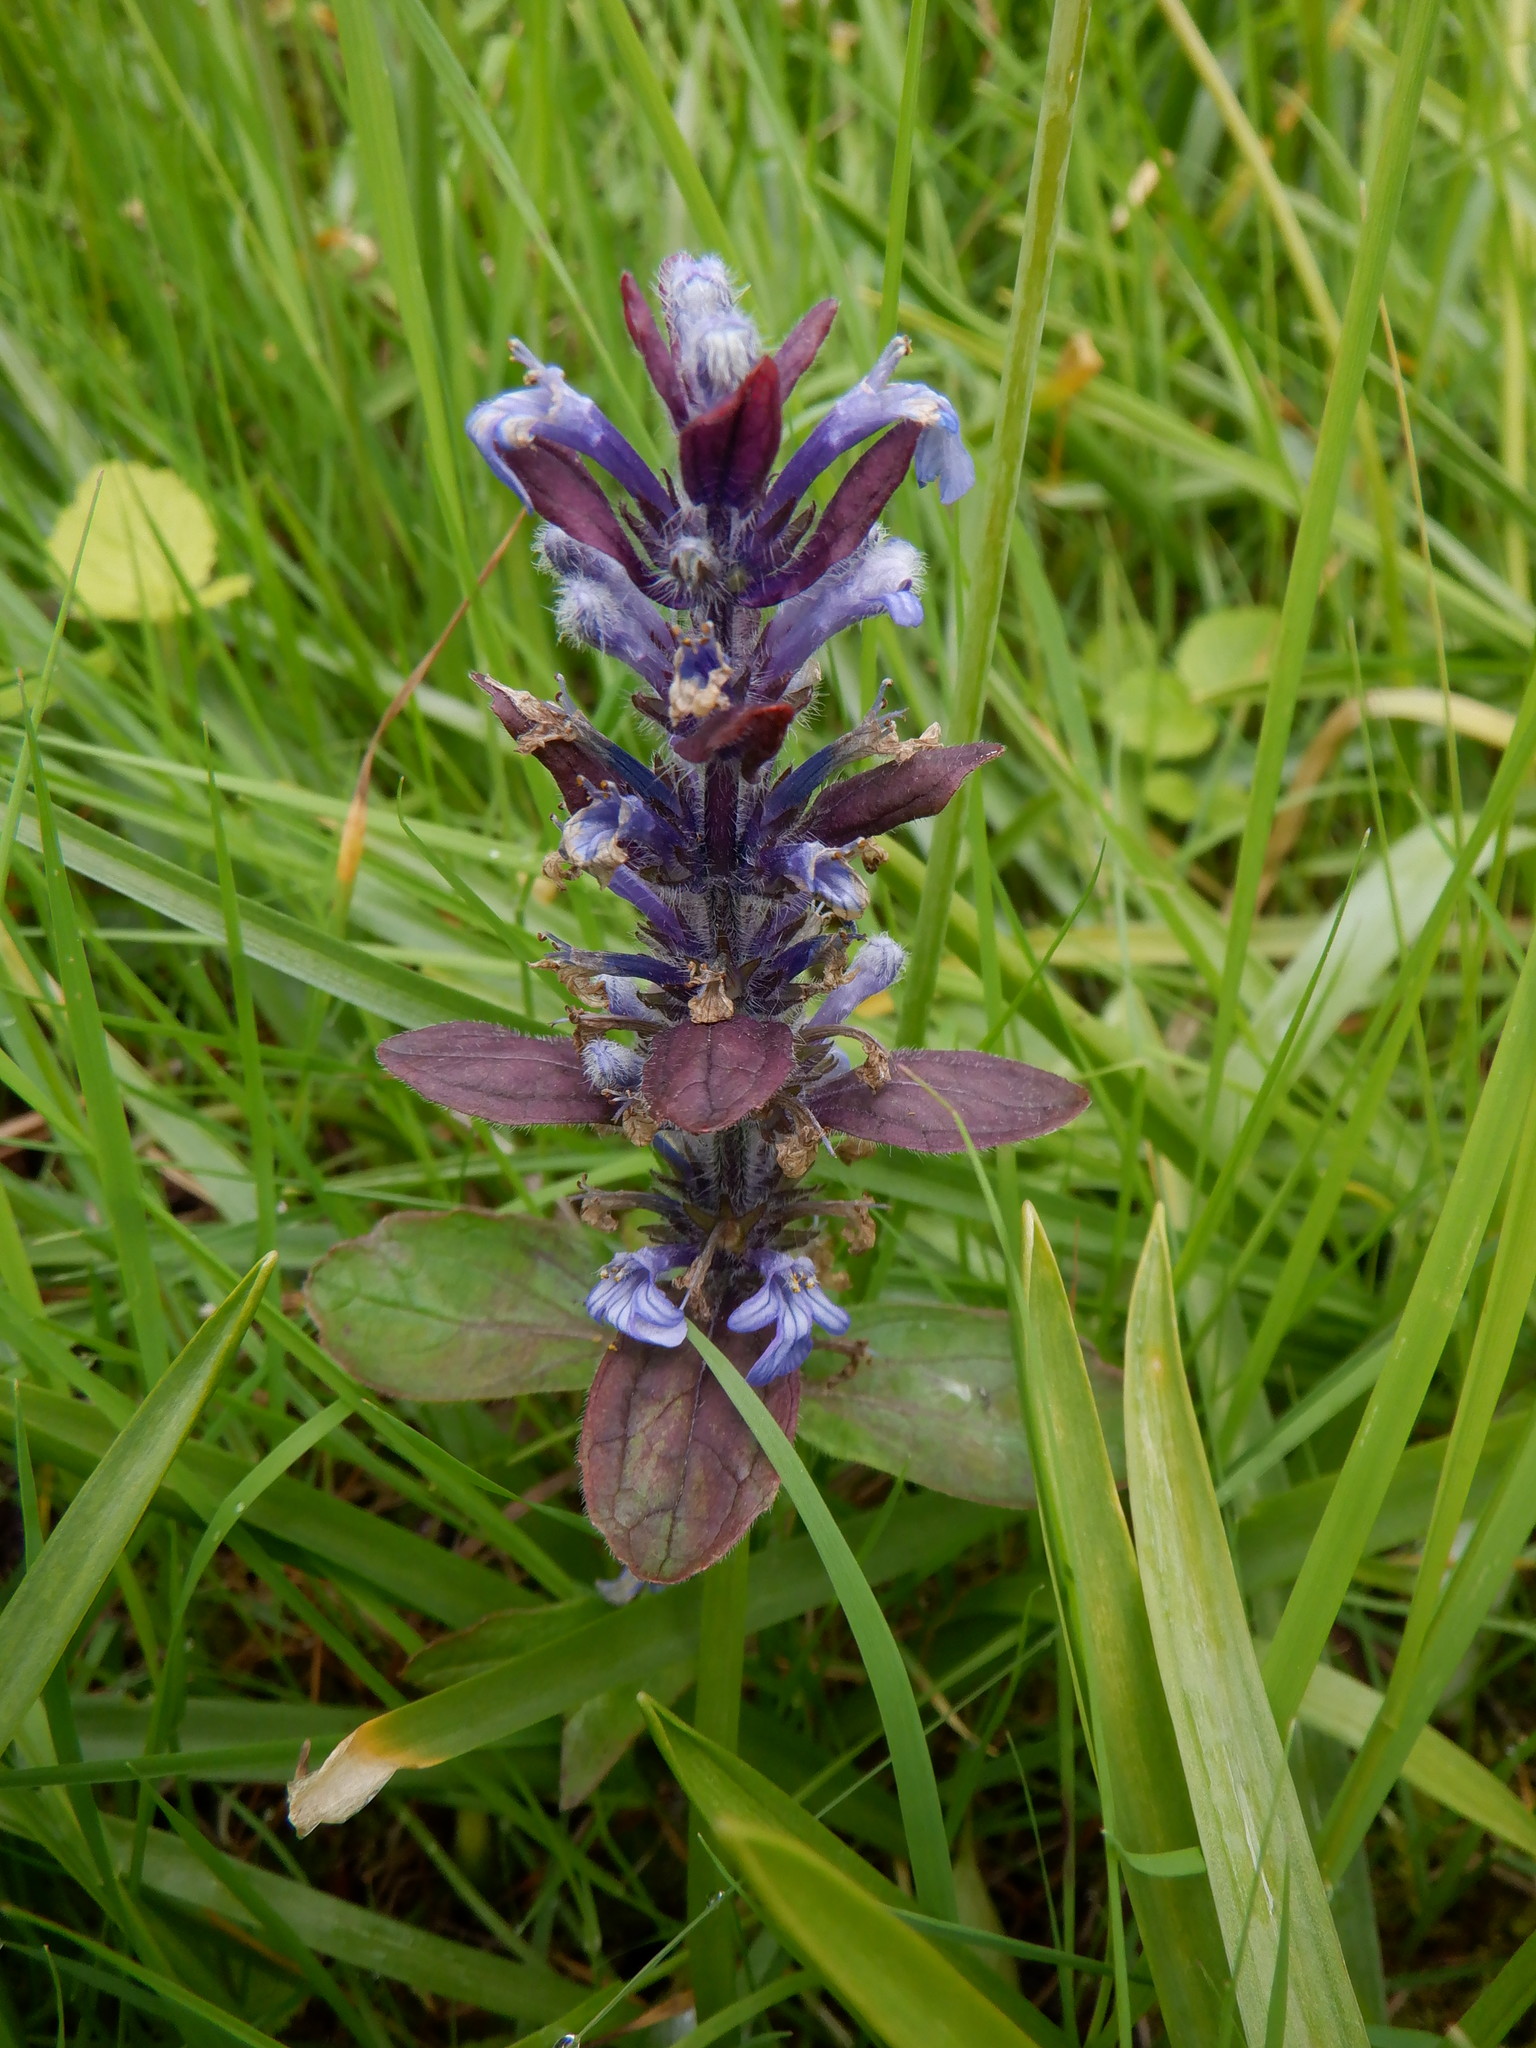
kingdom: Plantae
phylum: Tracheophyta
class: Magnoliopsida
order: Lamiales
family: Lamiaceae
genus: Ajuga
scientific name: Ajuga reptans
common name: Bugle
